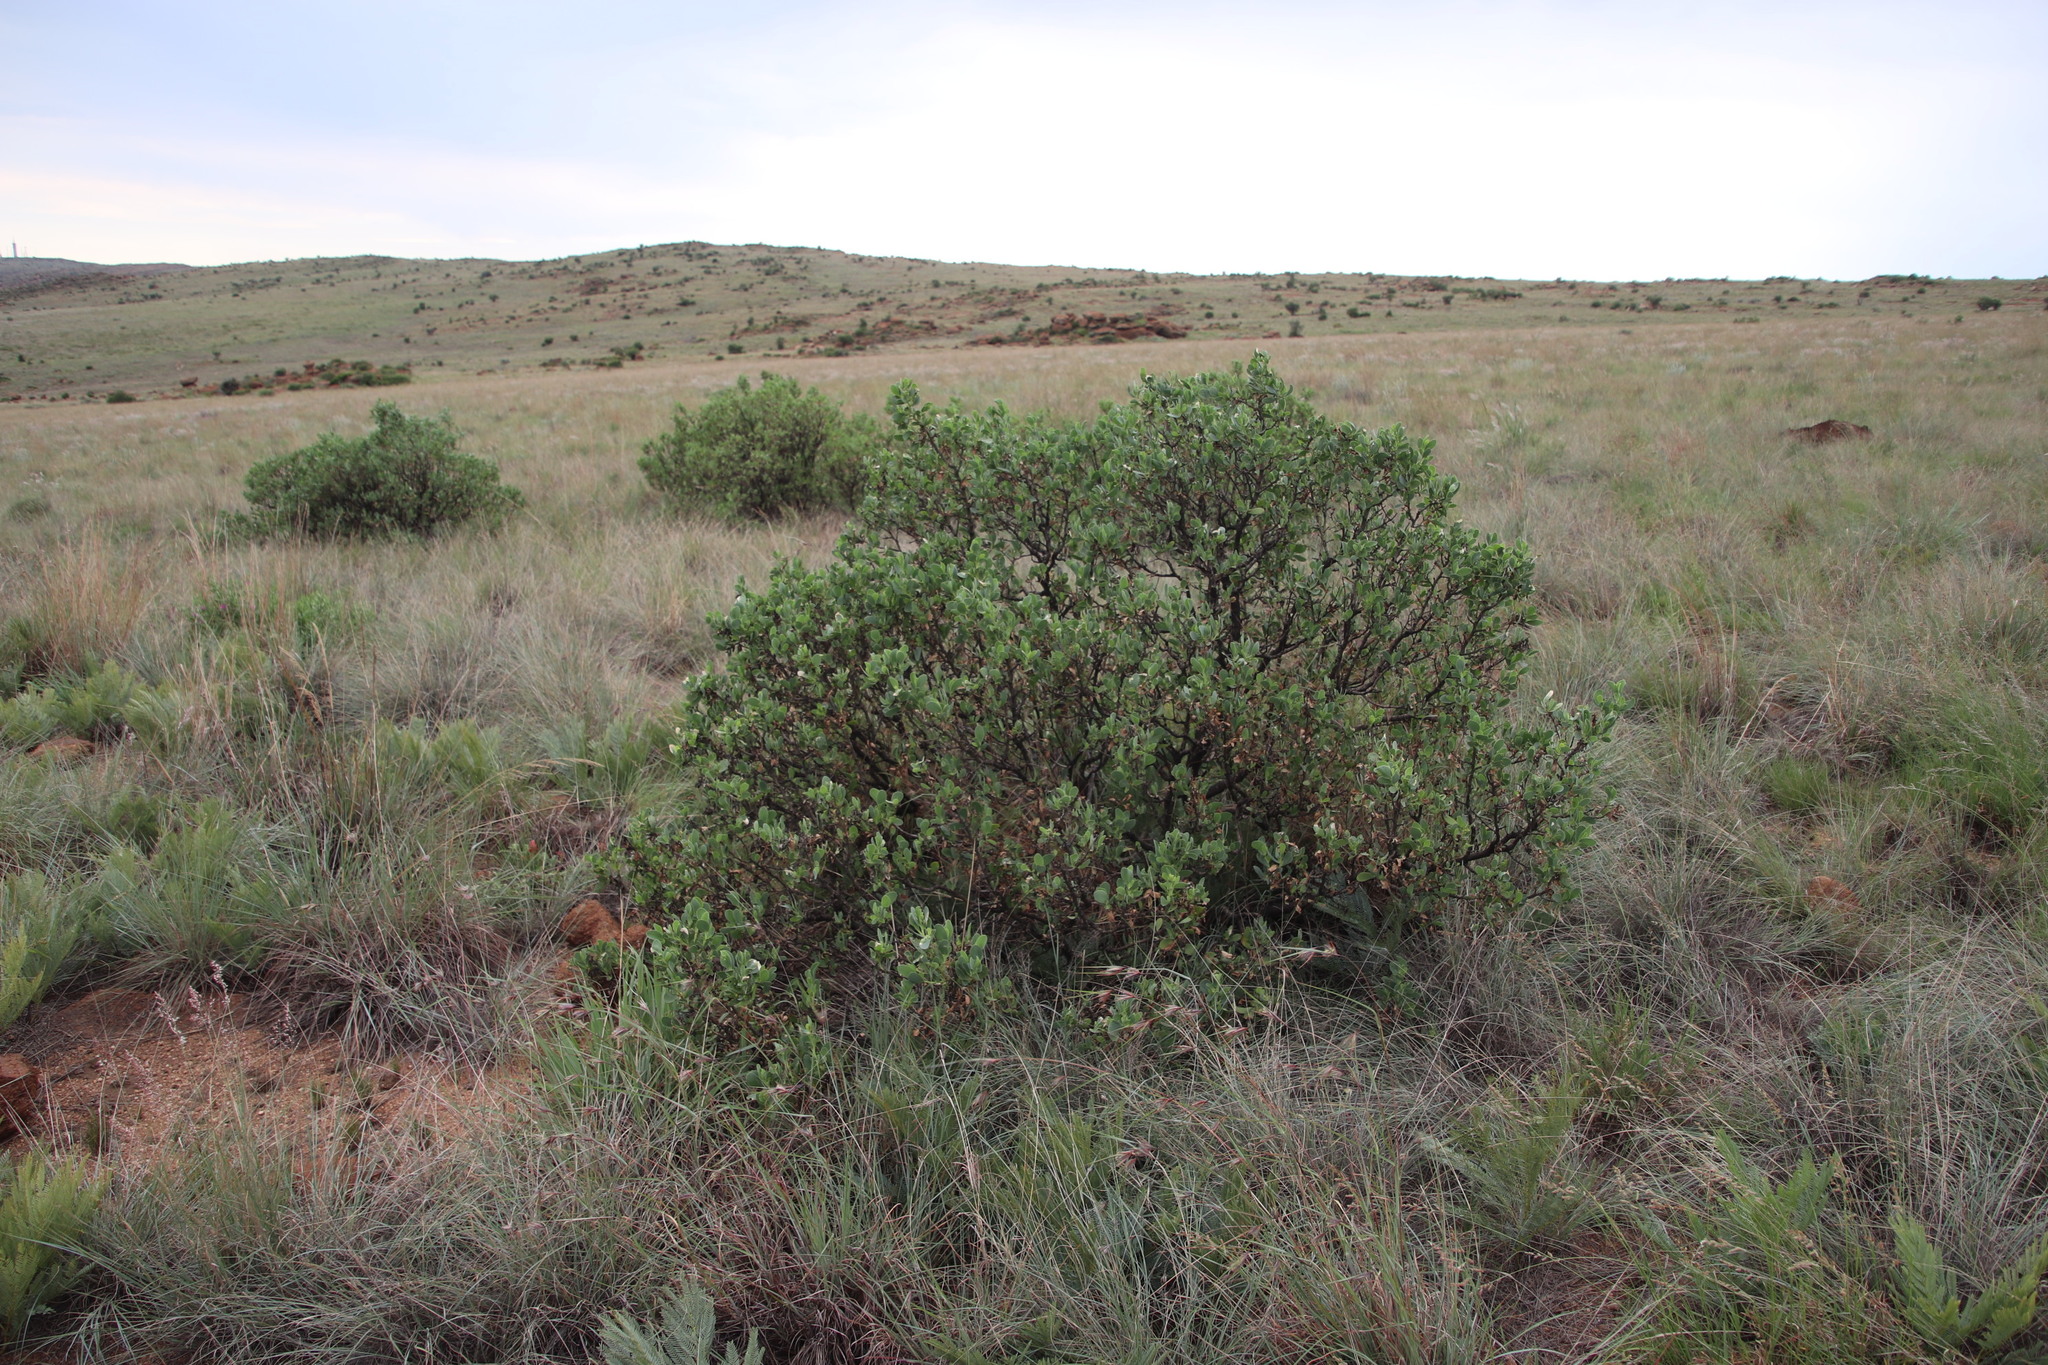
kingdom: Plantae
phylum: Tracheophyta
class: Magnoliopsida
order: Asterales
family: Asteraceae
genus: Lopholaena
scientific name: Lopholaena coriifolia
